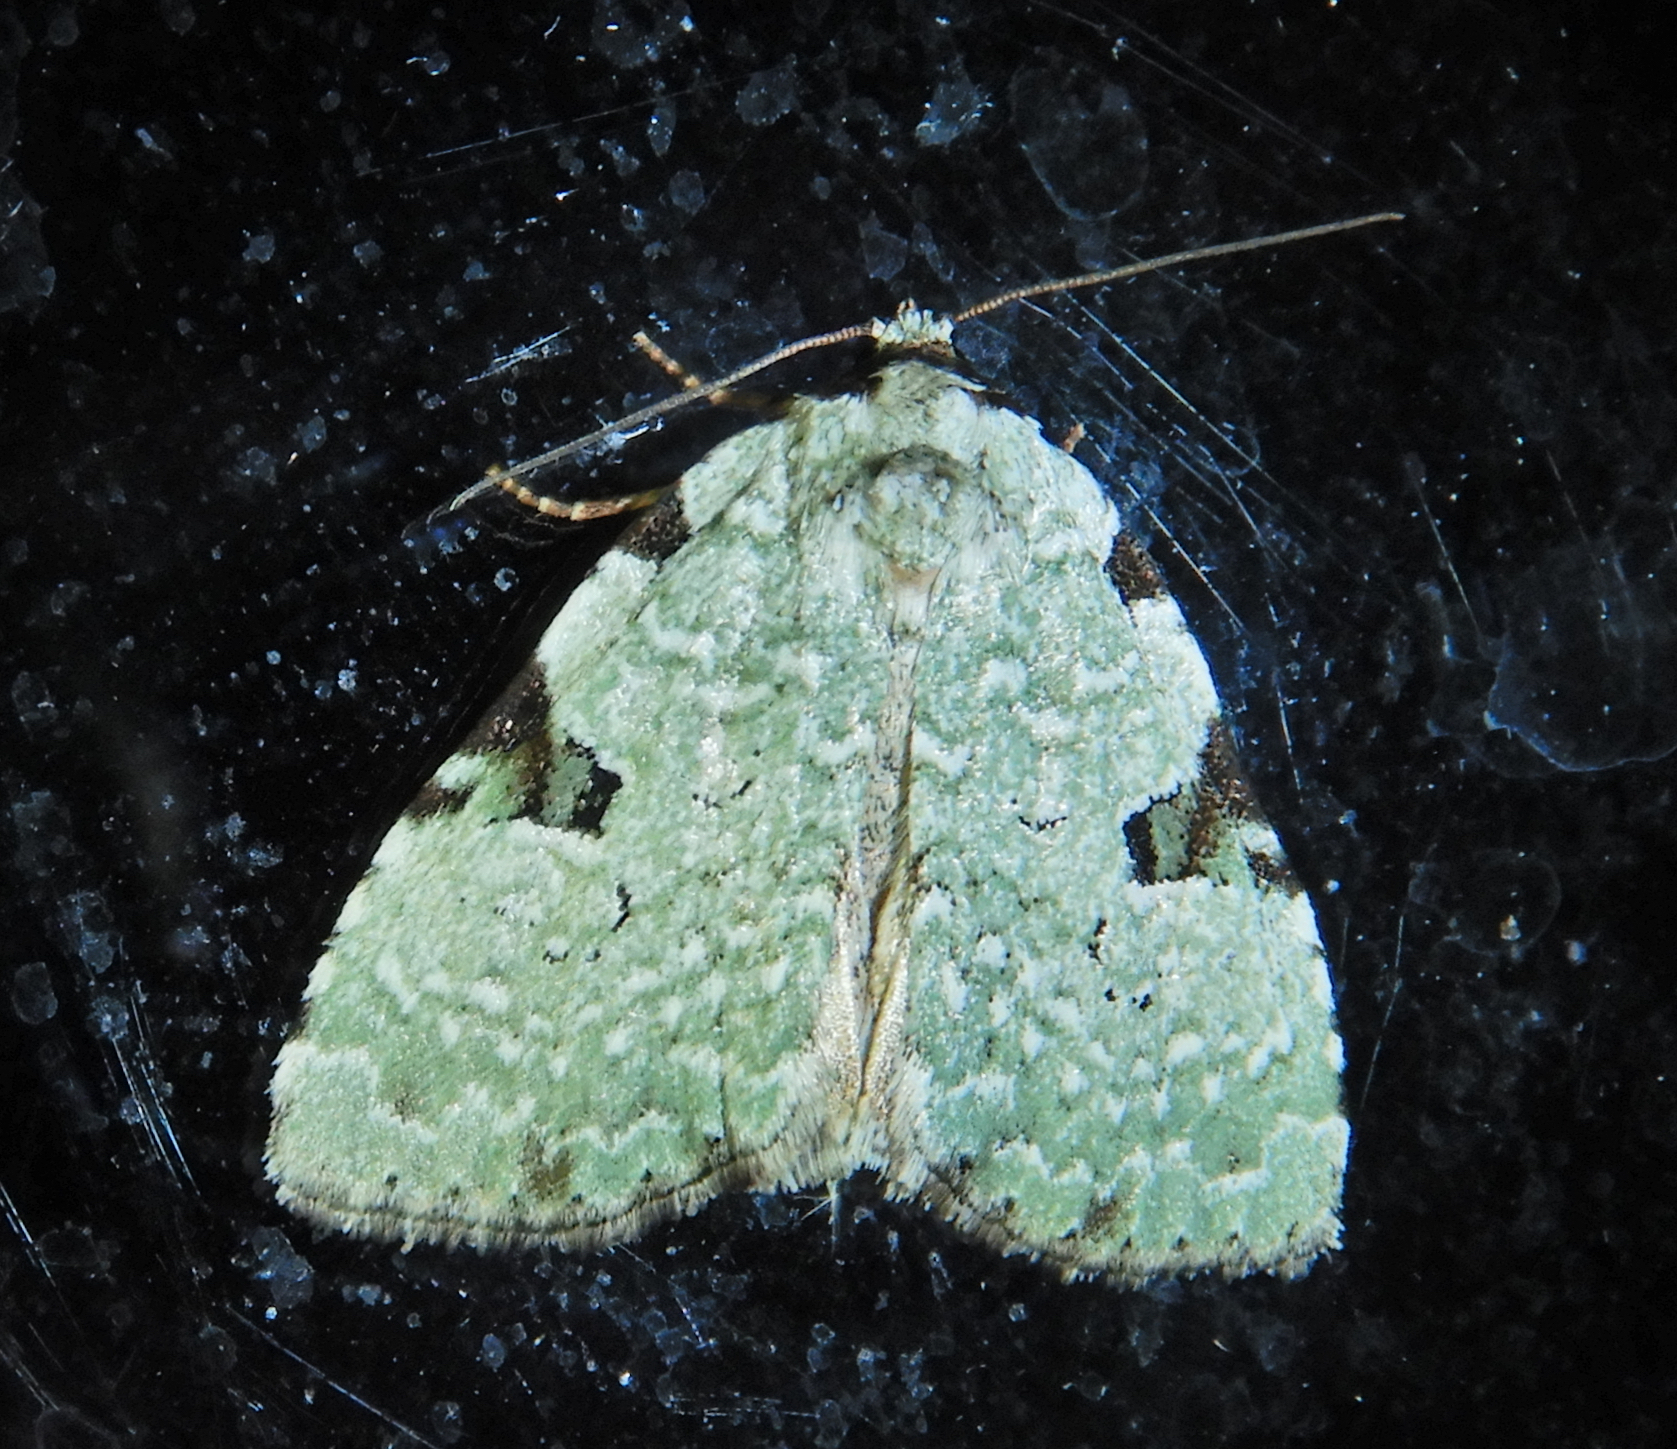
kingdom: Animalia
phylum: Arthropoda
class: Insecta
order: Lepidoptera
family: Noctuidae
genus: Leuconycta
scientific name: Leuconycta diphteroides
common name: Green leuconycta moth
